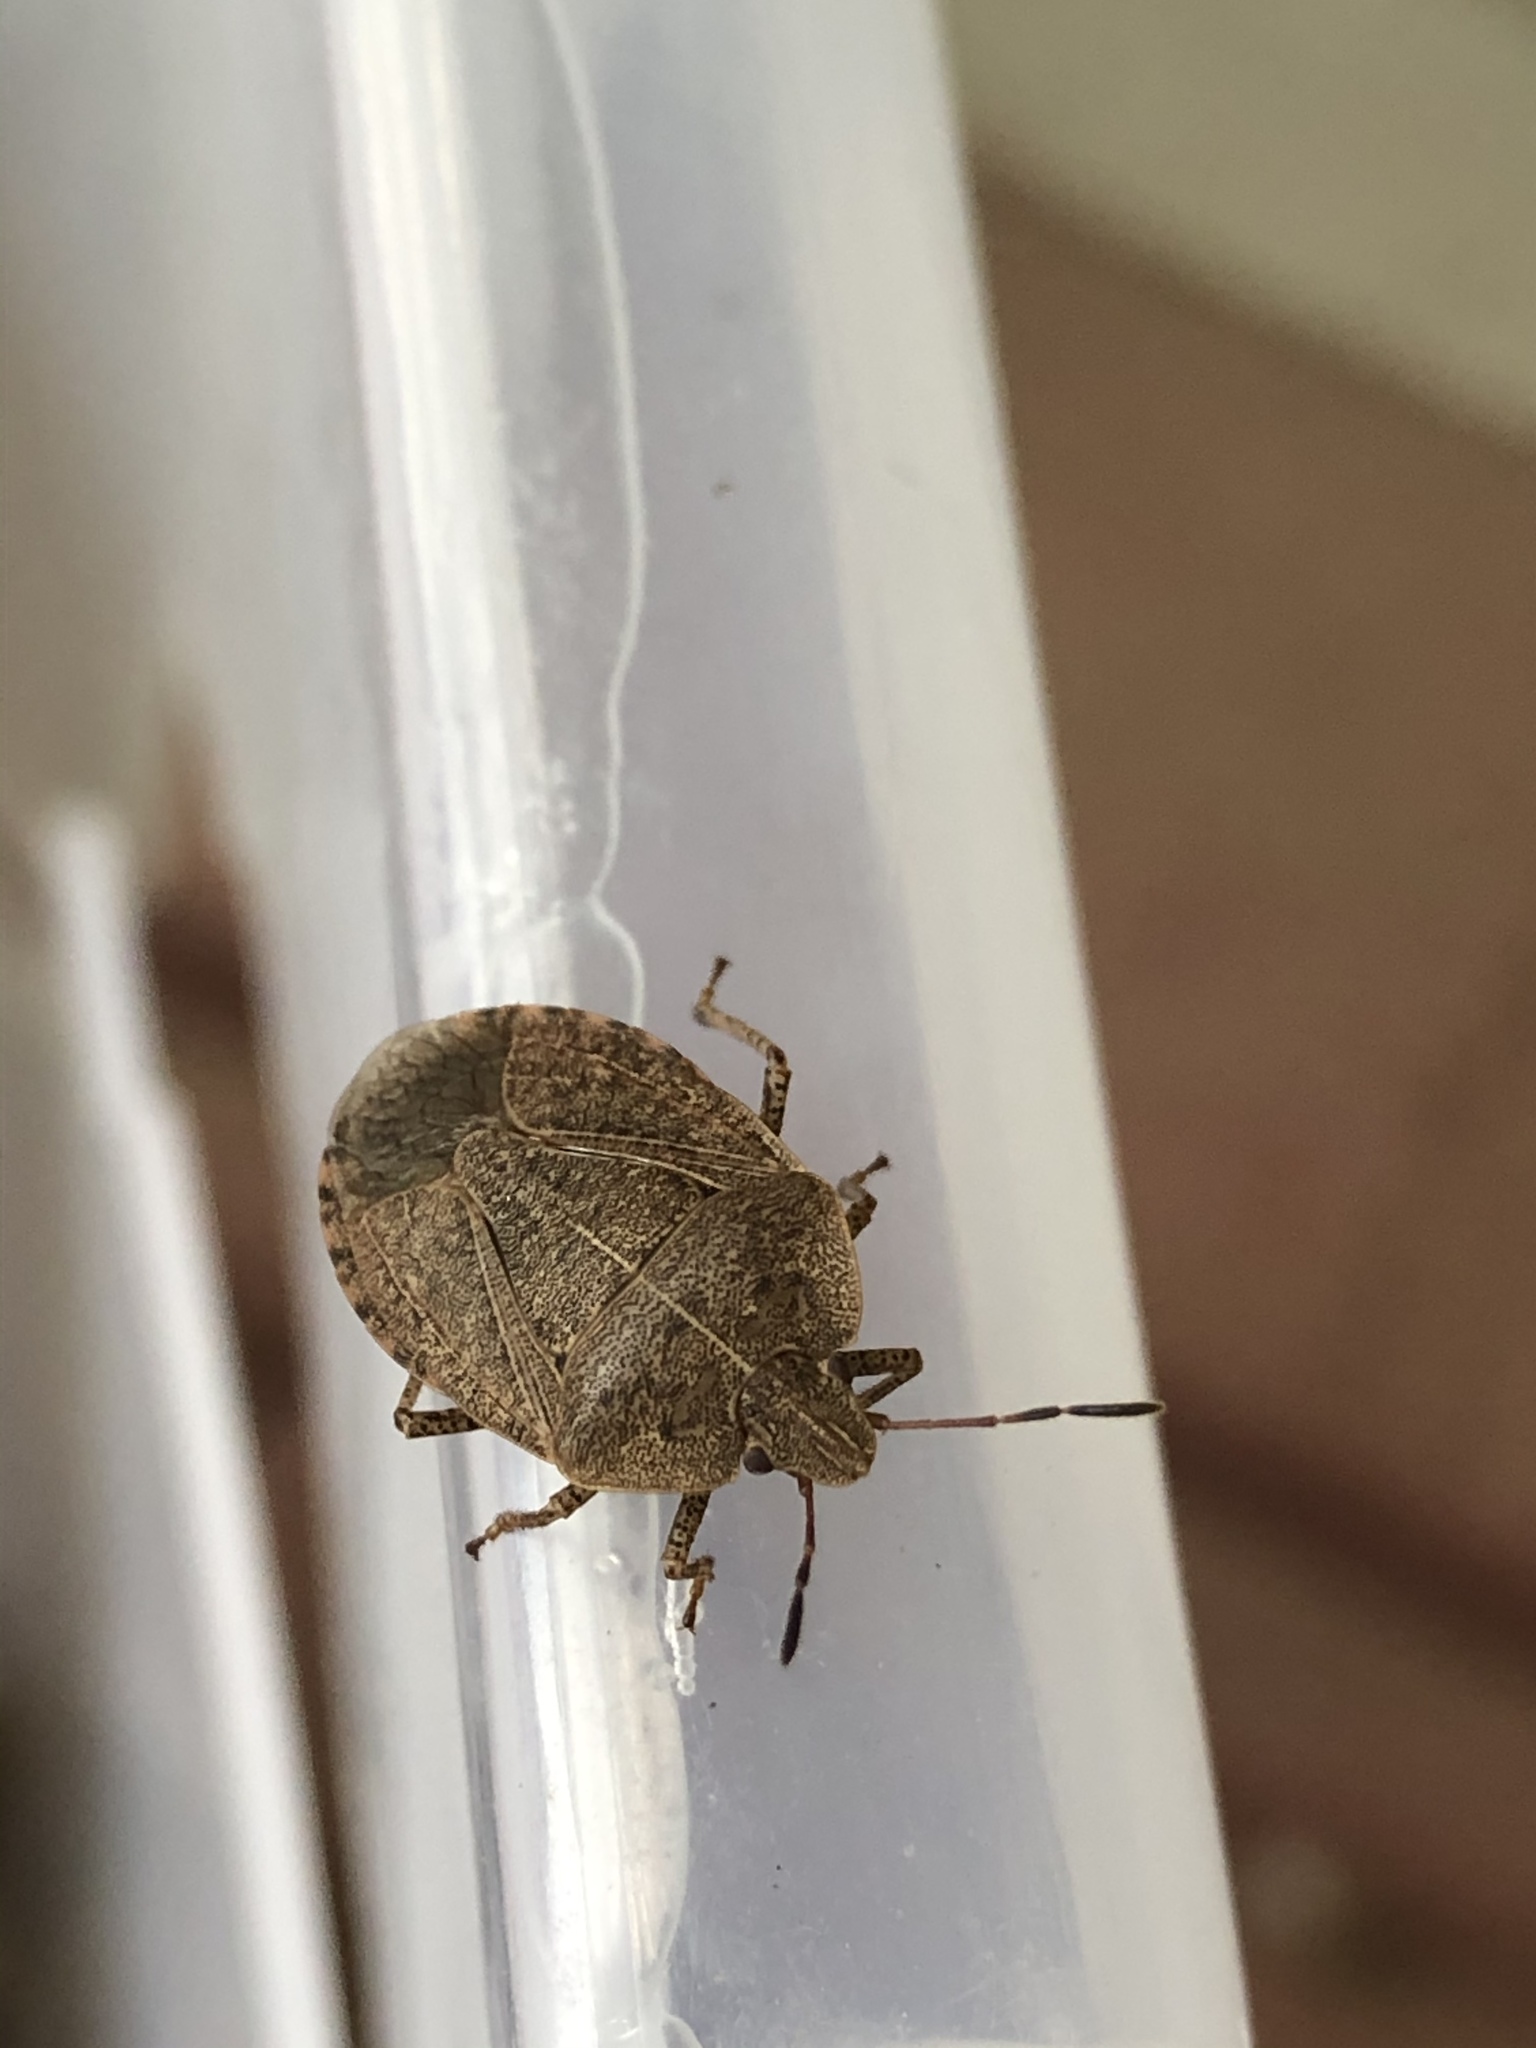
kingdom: Animalia
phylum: Arthropoda
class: Insecta
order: Hemiptera
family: Pentatomidae
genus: Menecles
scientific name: Menecles insertus
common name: Elf shoe stink bug
